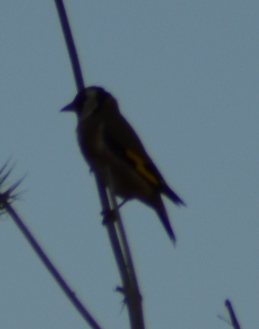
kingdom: Animalia
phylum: Chordata
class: Aves
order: Passeriformes
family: Fringillidae
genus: Carduelis
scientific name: Carduelis carduelis
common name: European goldfinch
